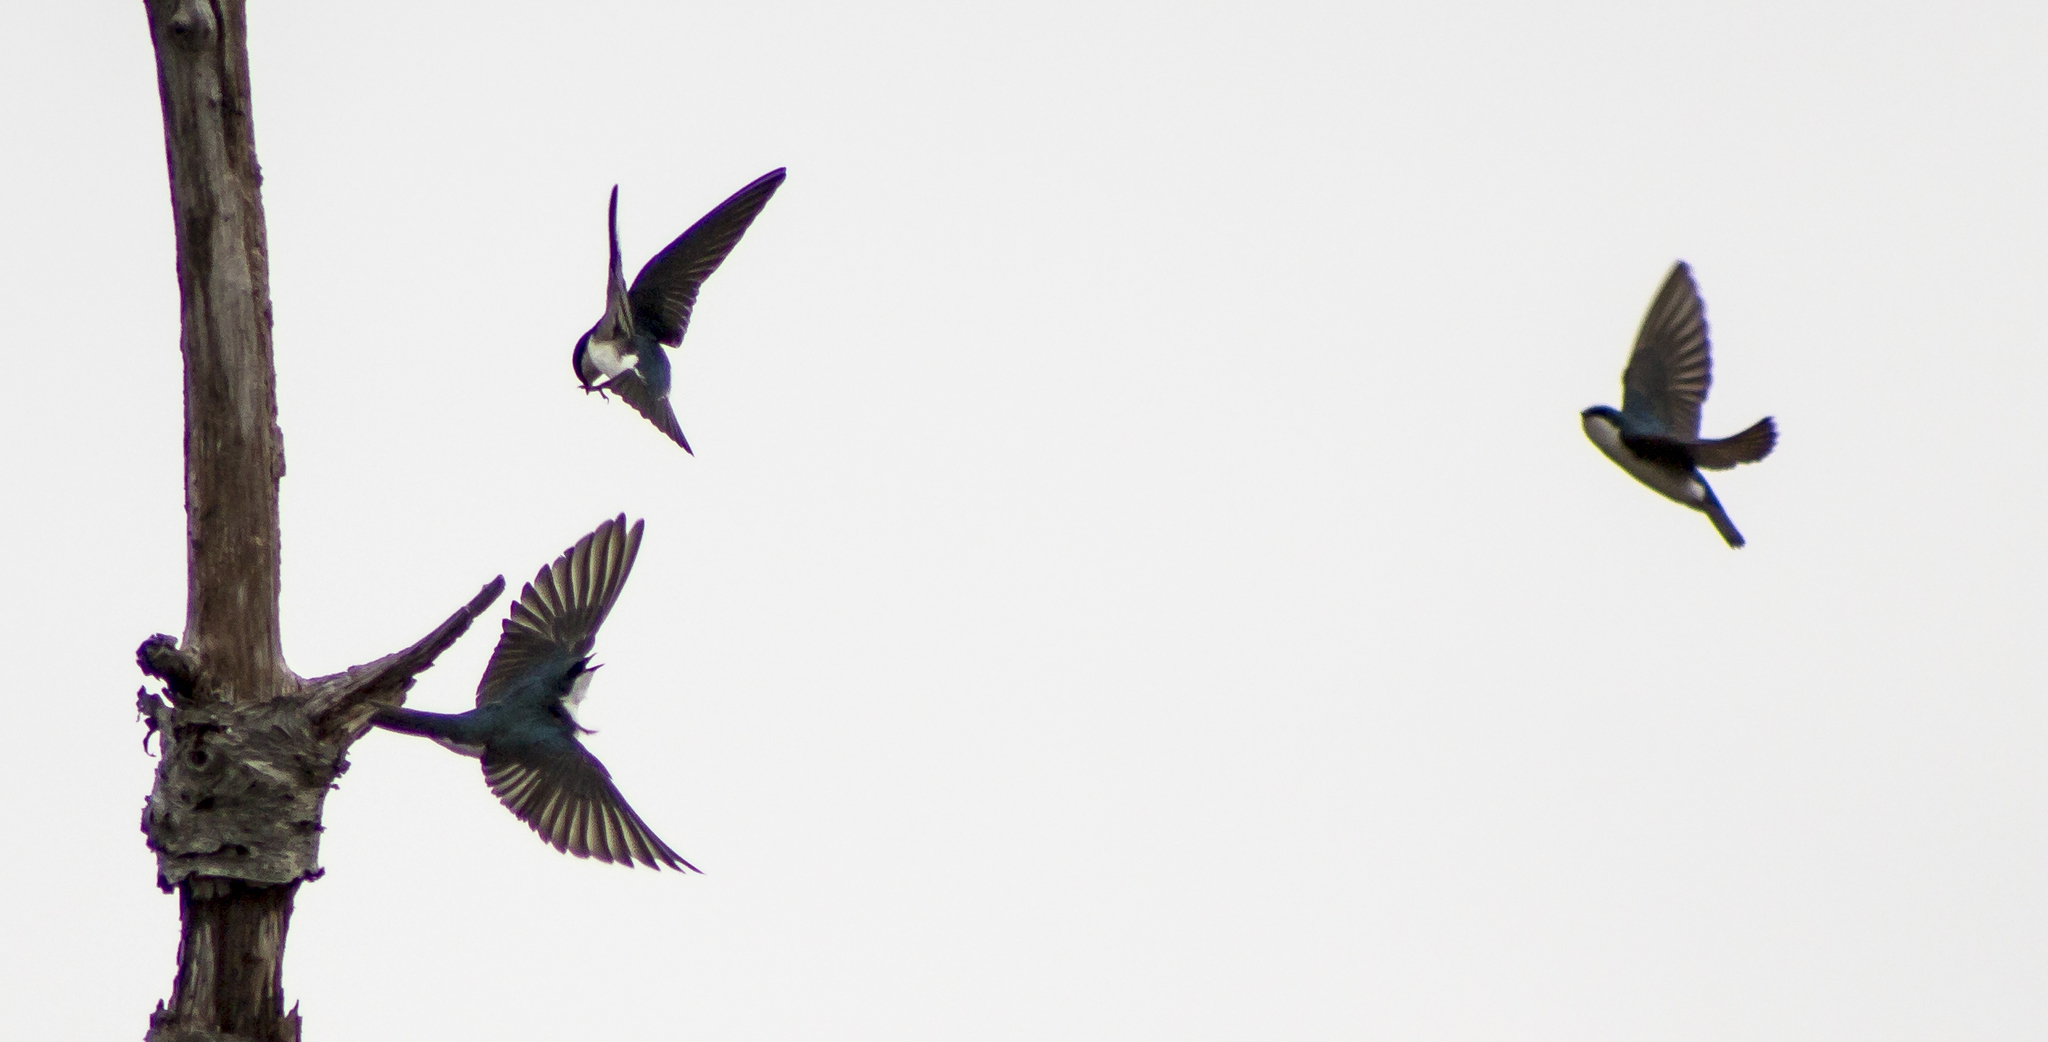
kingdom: Animalia
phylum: Chordata
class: Aves
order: Passeriformes
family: Hirundinidae
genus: Tachycineta
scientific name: Tachycineta bicolor
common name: Tree swallow
